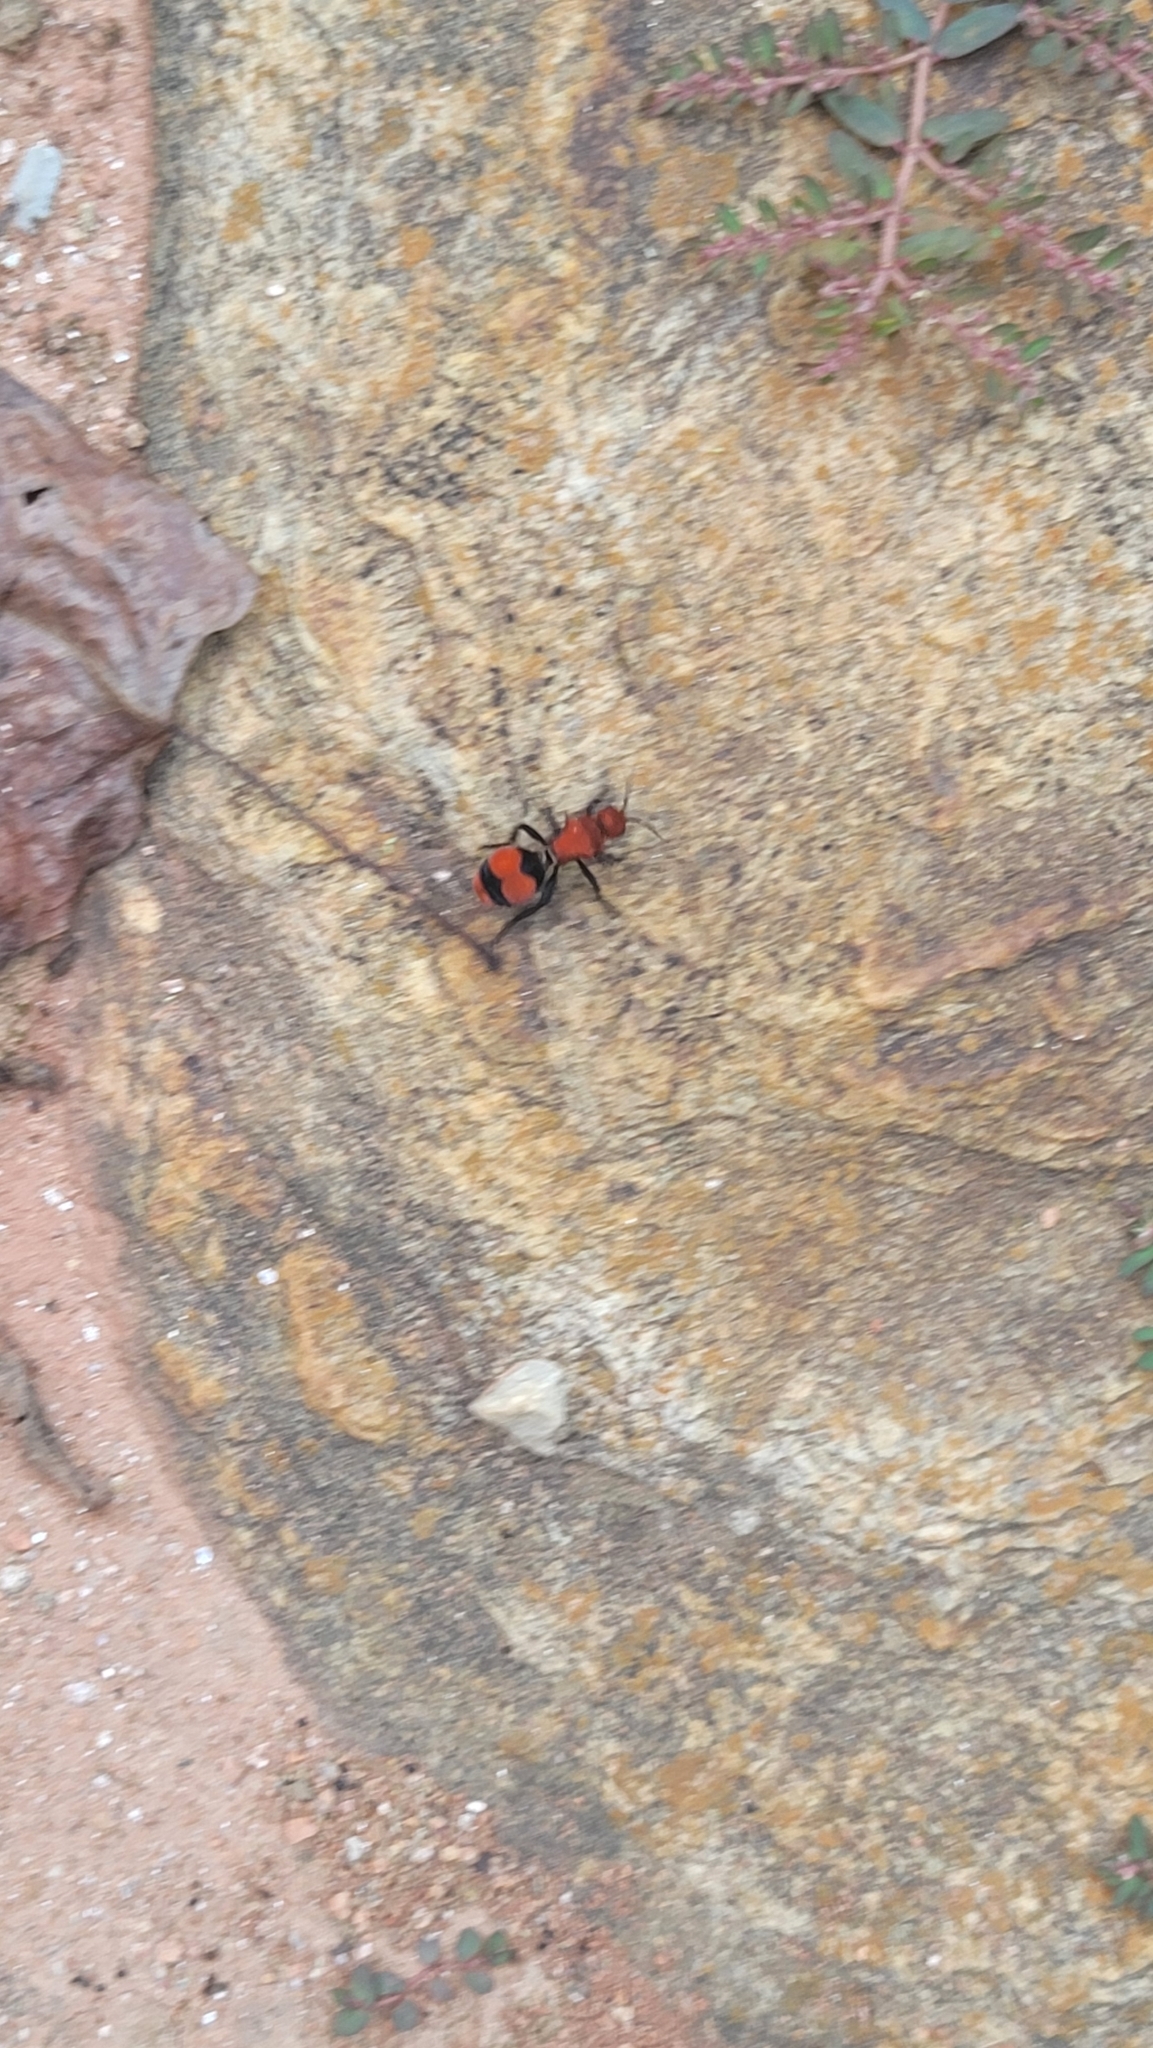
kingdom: Animalia
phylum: Arthropoda
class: Insecta
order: Hymenoptera
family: Mutillidae
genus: Dasymutilla
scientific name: Dasymutilla occidentalis
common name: Common eastern velvet ant
